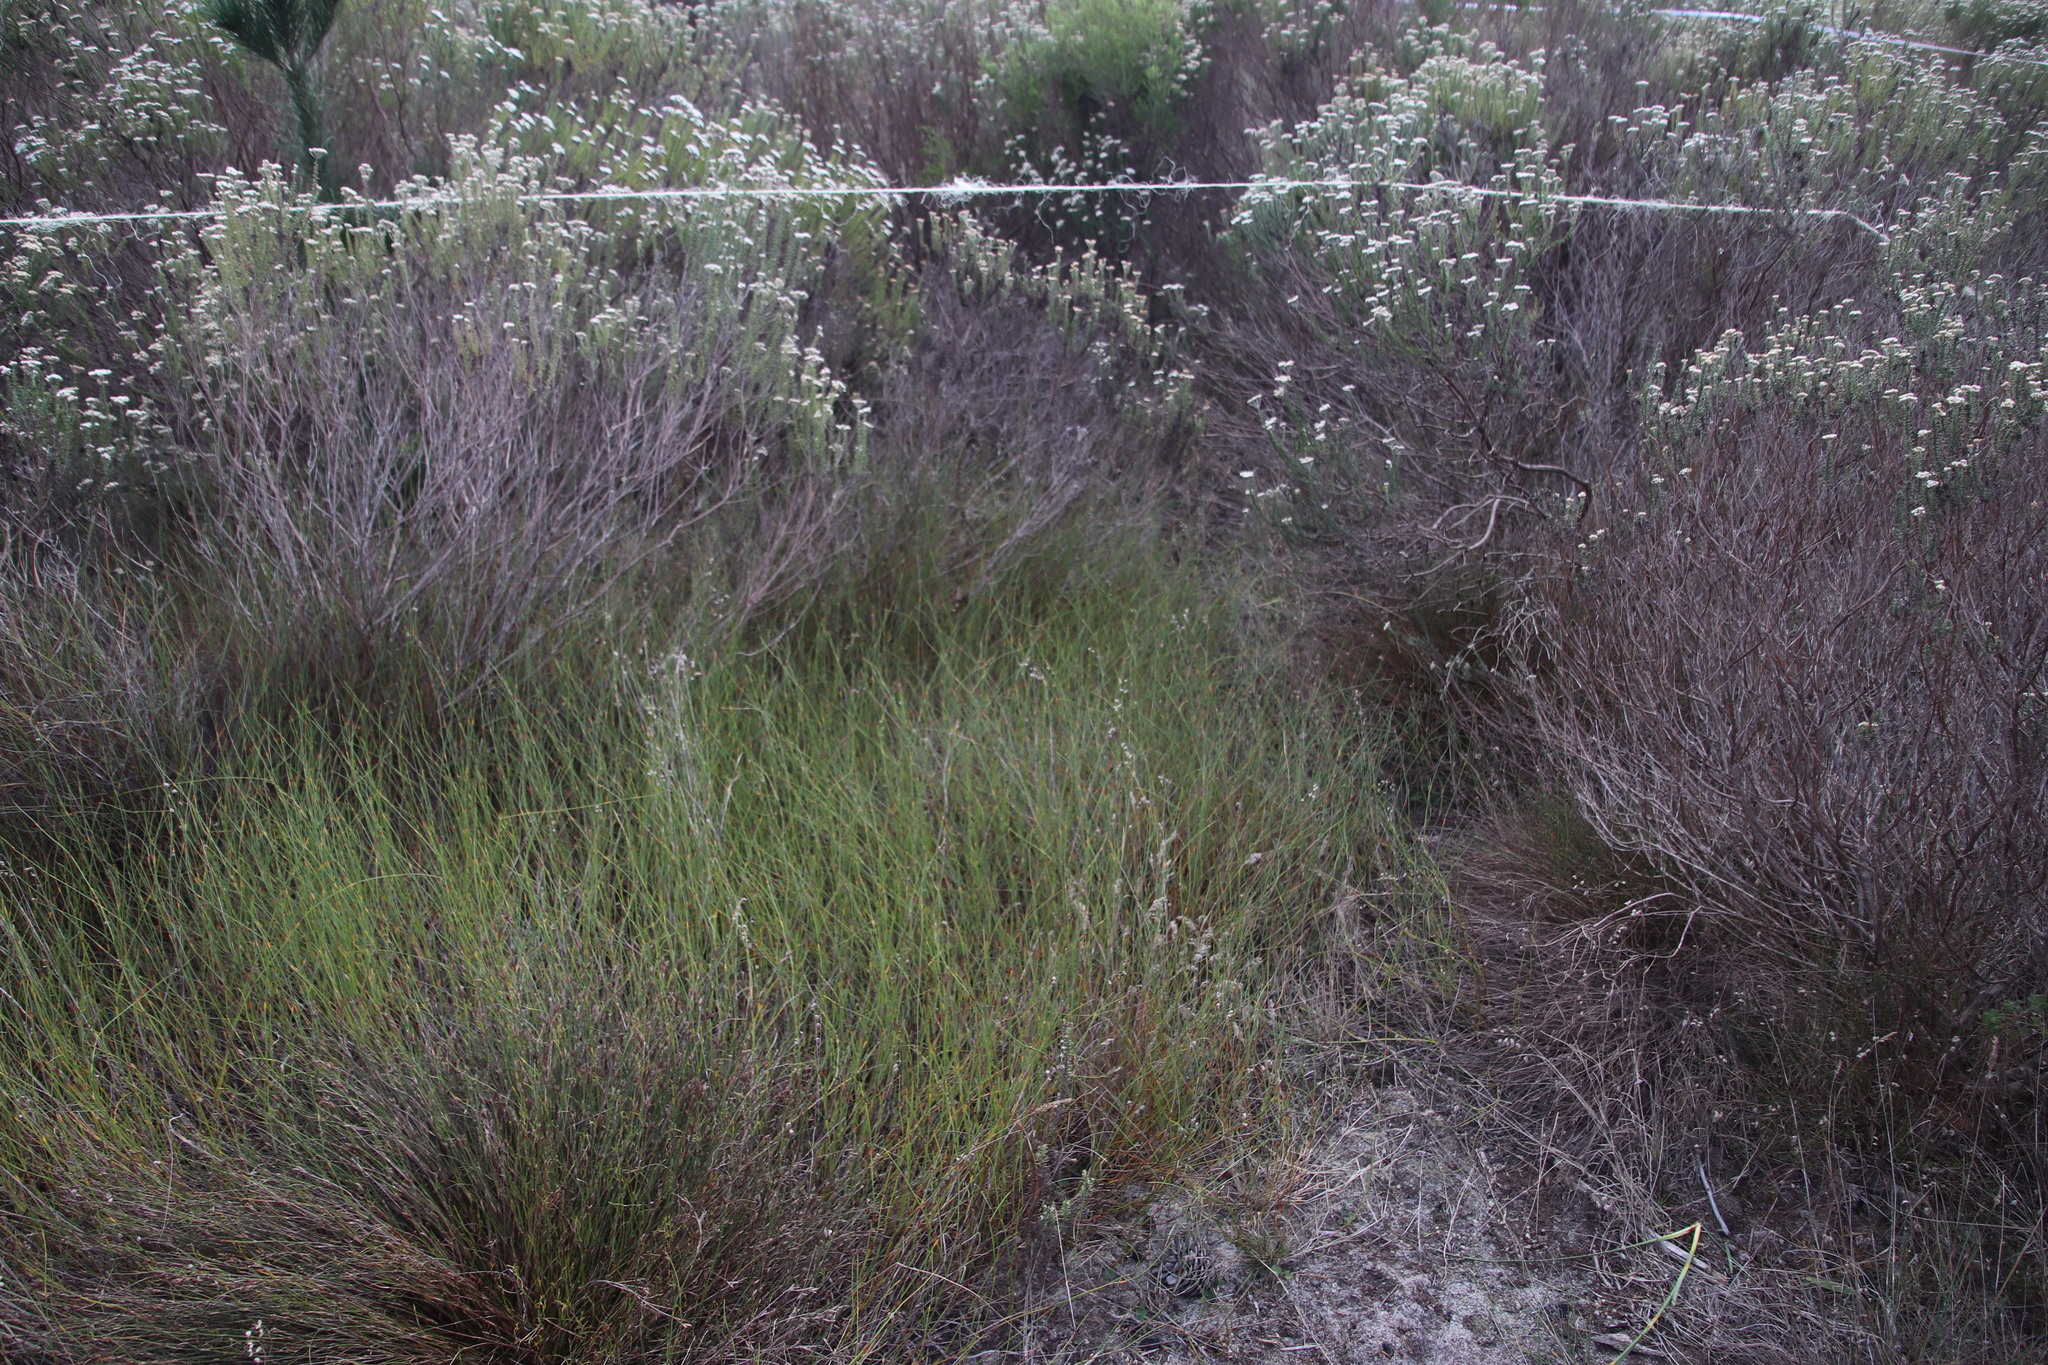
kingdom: Plantae
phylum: Tracheophyta
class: Liliopsida
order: Poales
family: Restionaceae
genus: Willdenowia
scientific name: Willdenowia sulcata
